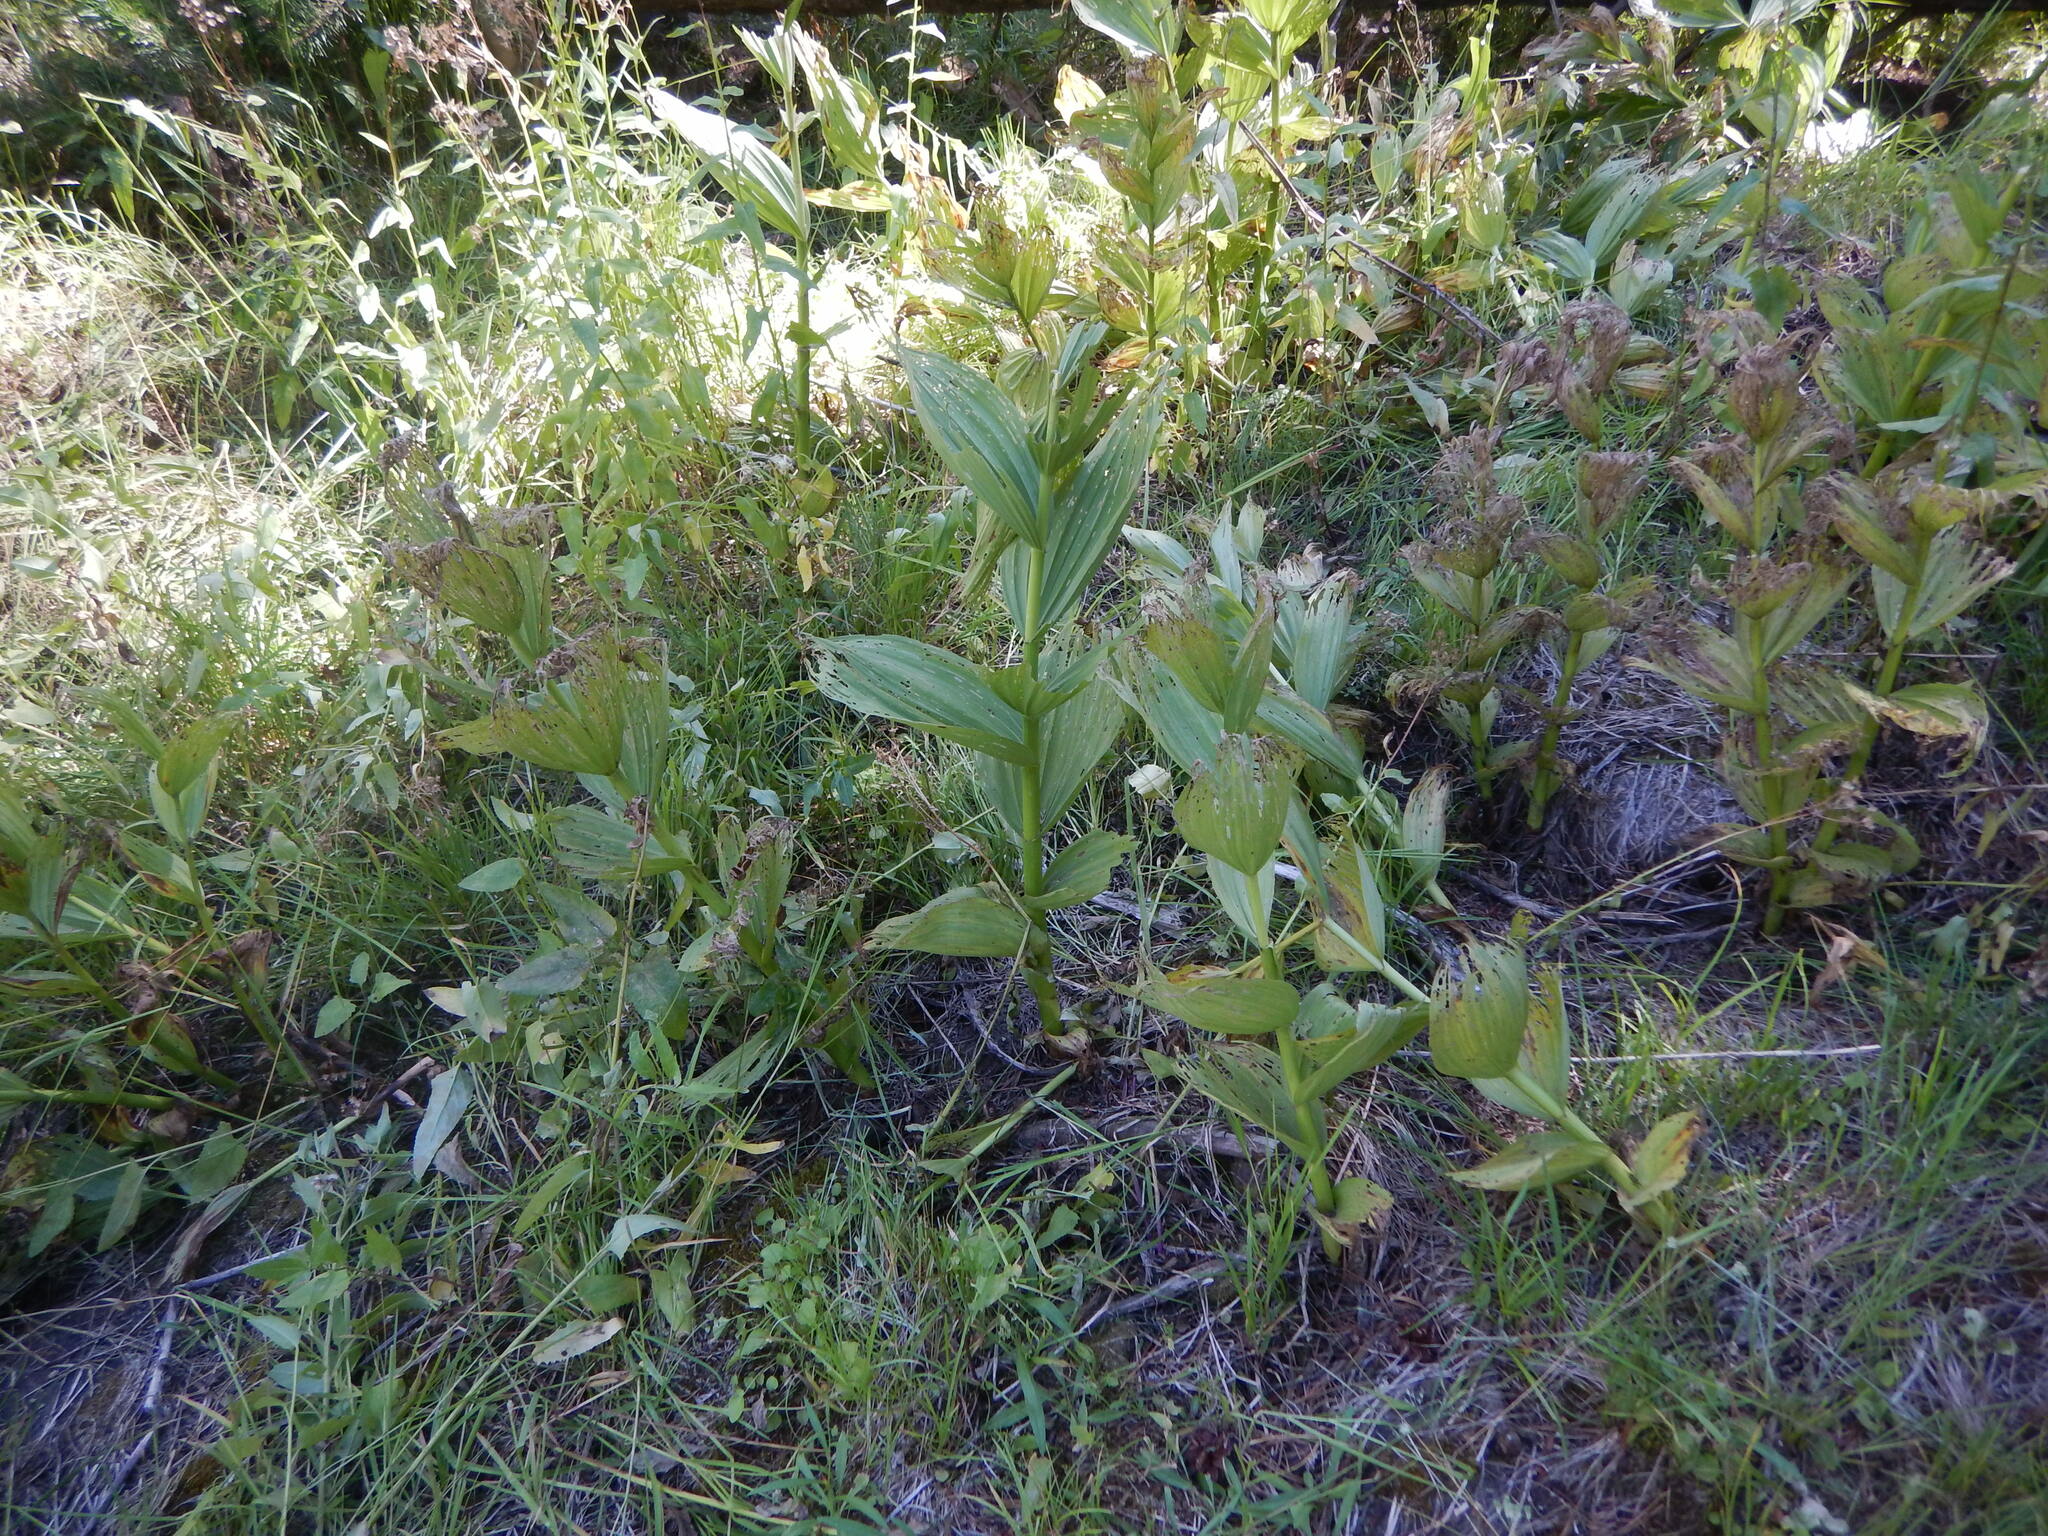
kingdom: Plantae
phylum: Tracheophyta
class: Liliopsida
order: Liliales
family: Melanthiaceae
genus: Veratrum
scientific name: Veratrum californicum
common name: California veratrum
